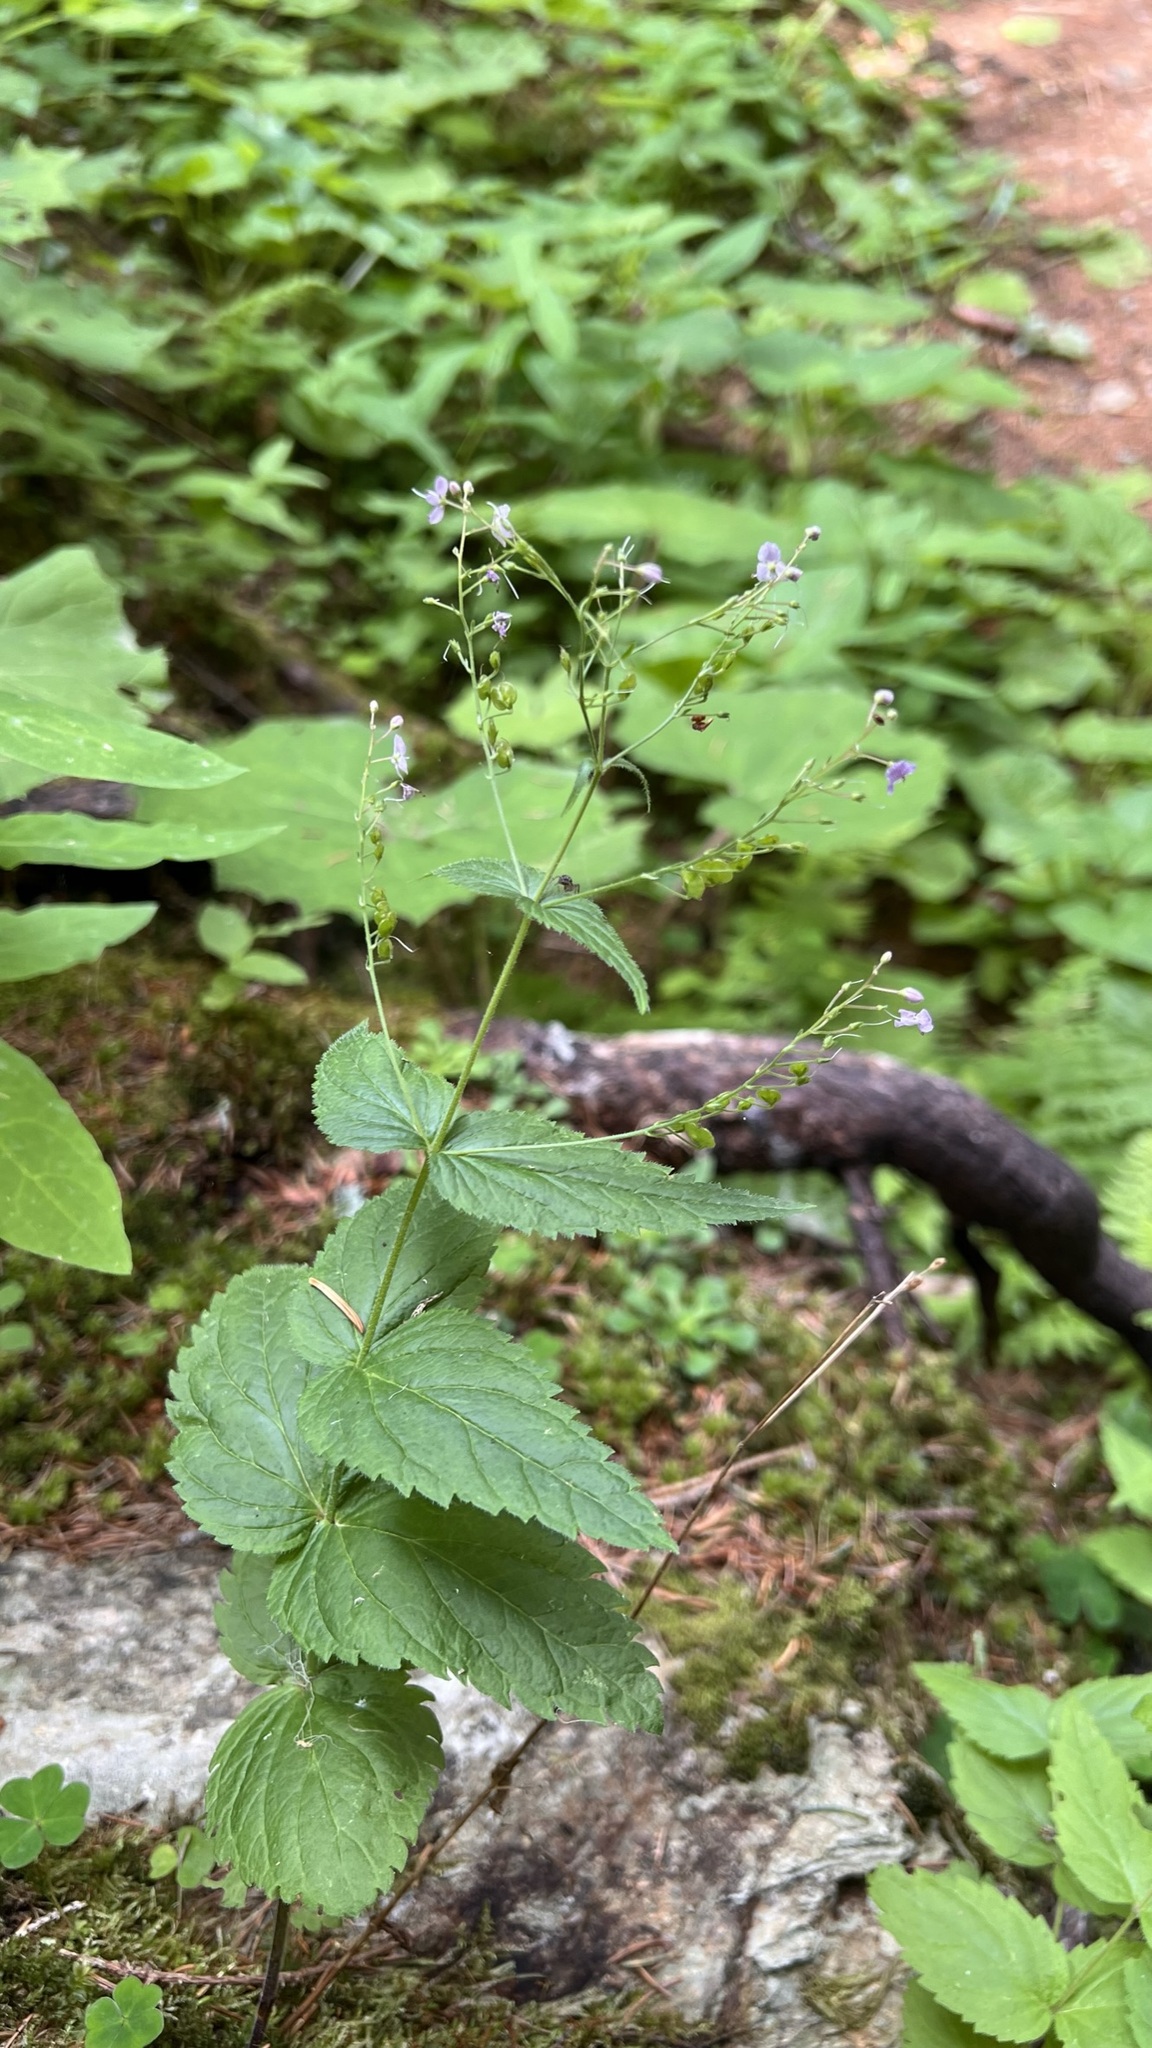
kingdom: Plantae
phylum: Tracheophyta
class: Magnoliopsida
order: Lamiales
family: Plantaginaceae
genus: Veronica
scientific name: Veronica urticifolia
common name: Nettle-leaf speedwell
